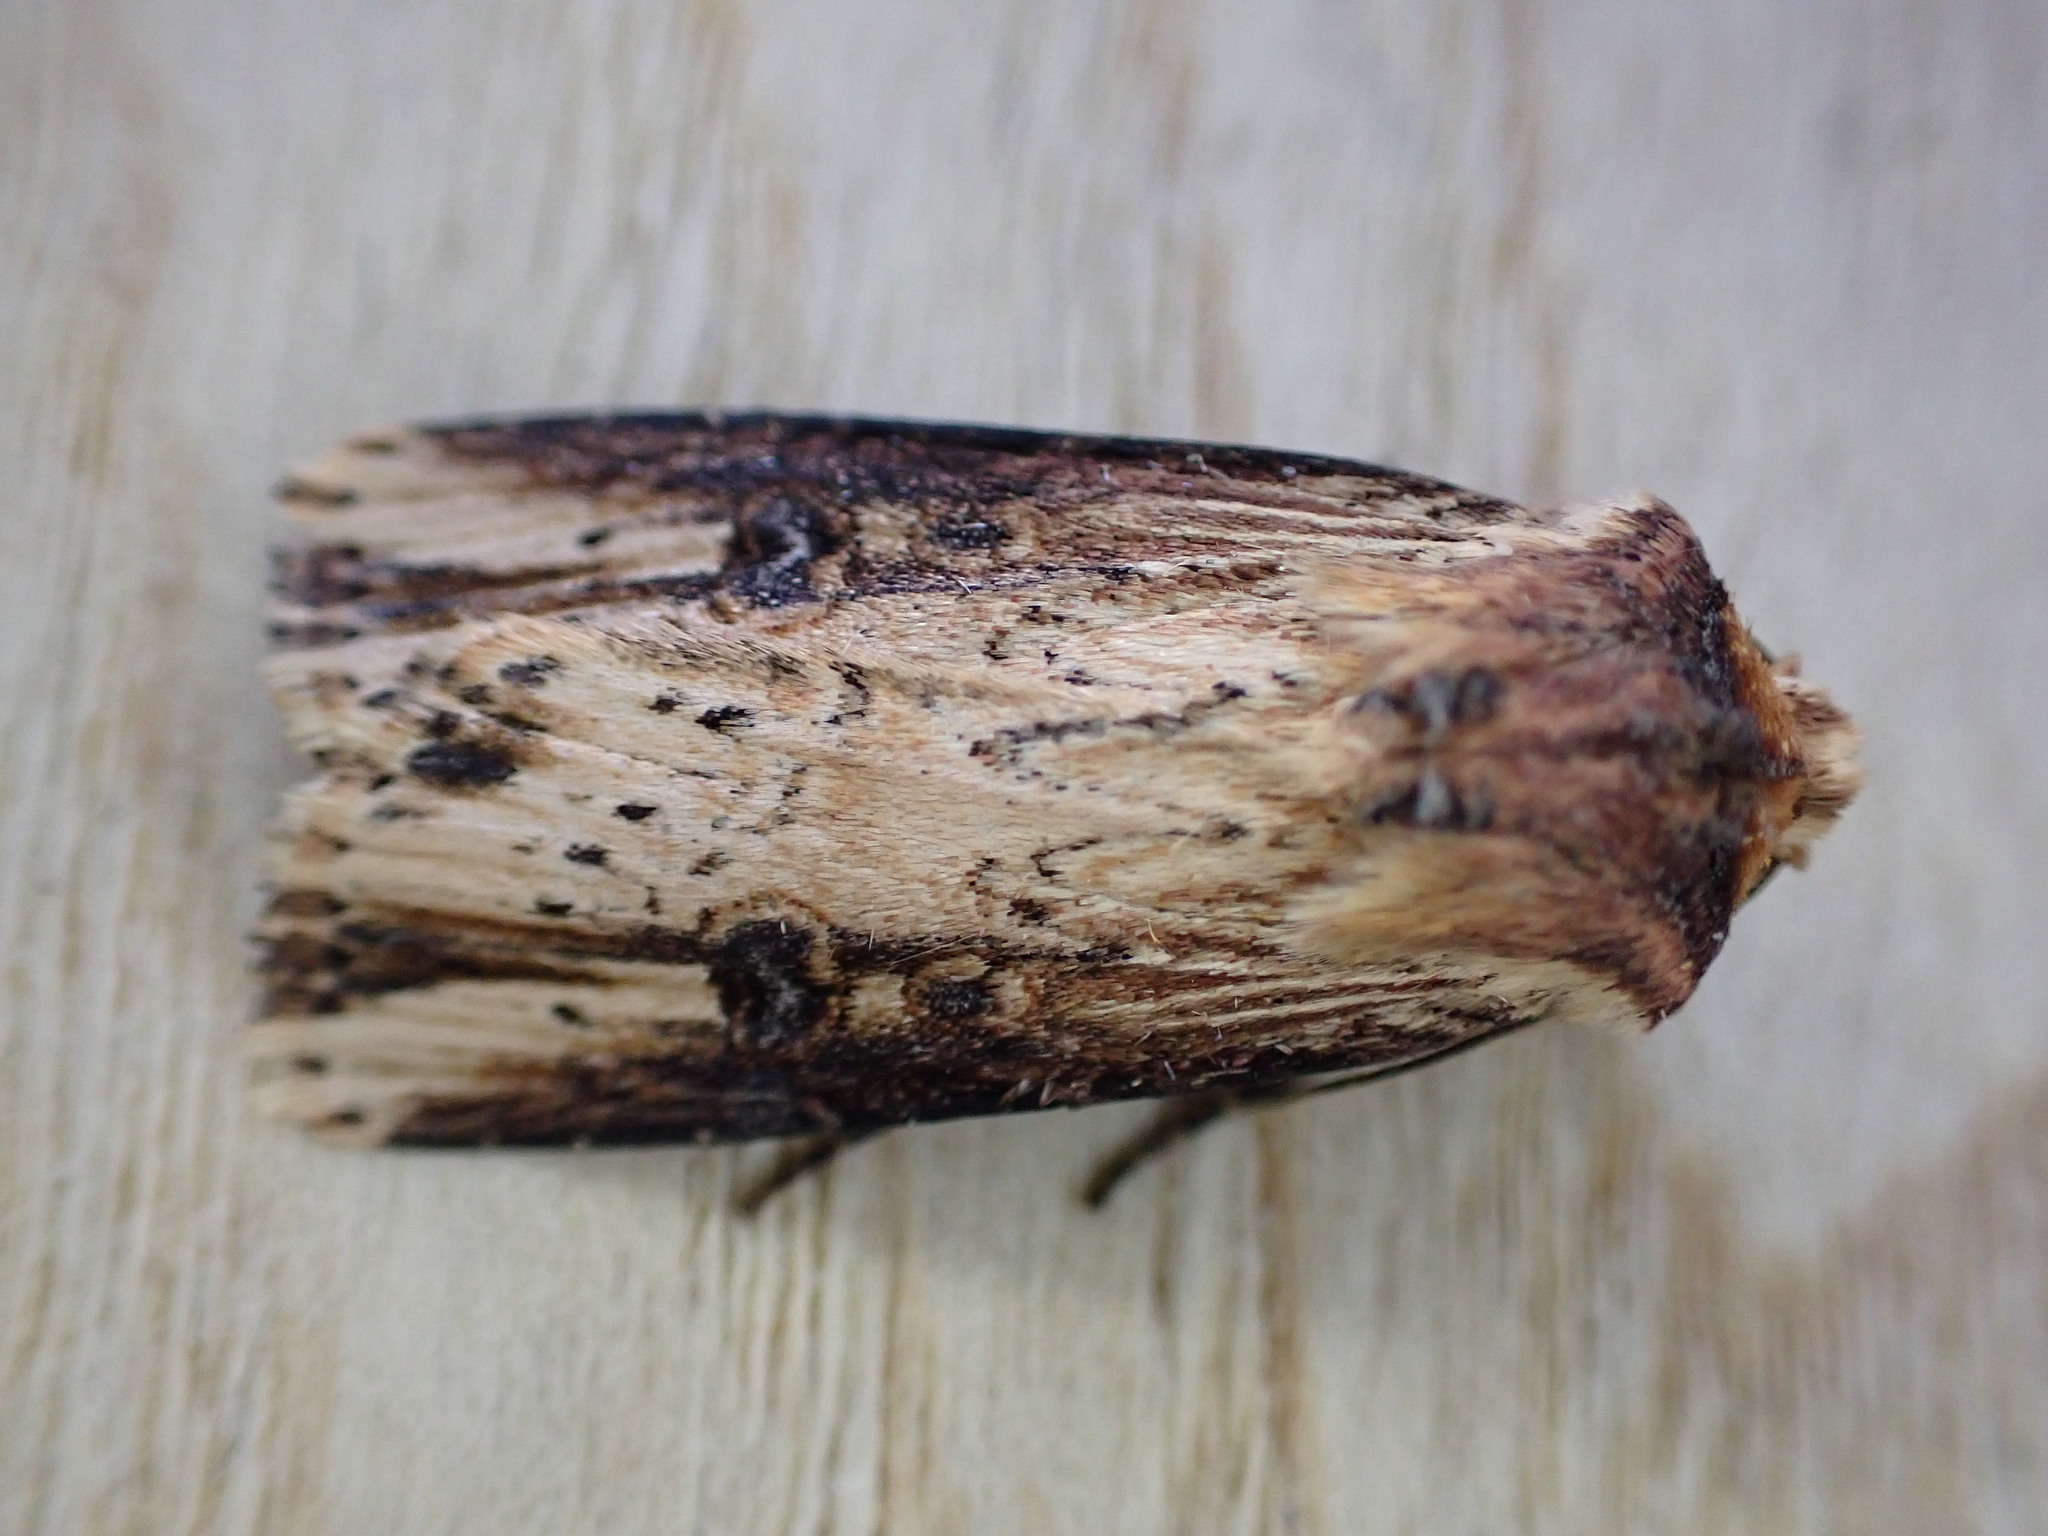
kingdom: Animalia
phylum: Arthropoda
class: Insecta
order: Lepidoptera
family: Noctuidae
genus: Axylia
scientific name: Axylia putris
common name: Flame
